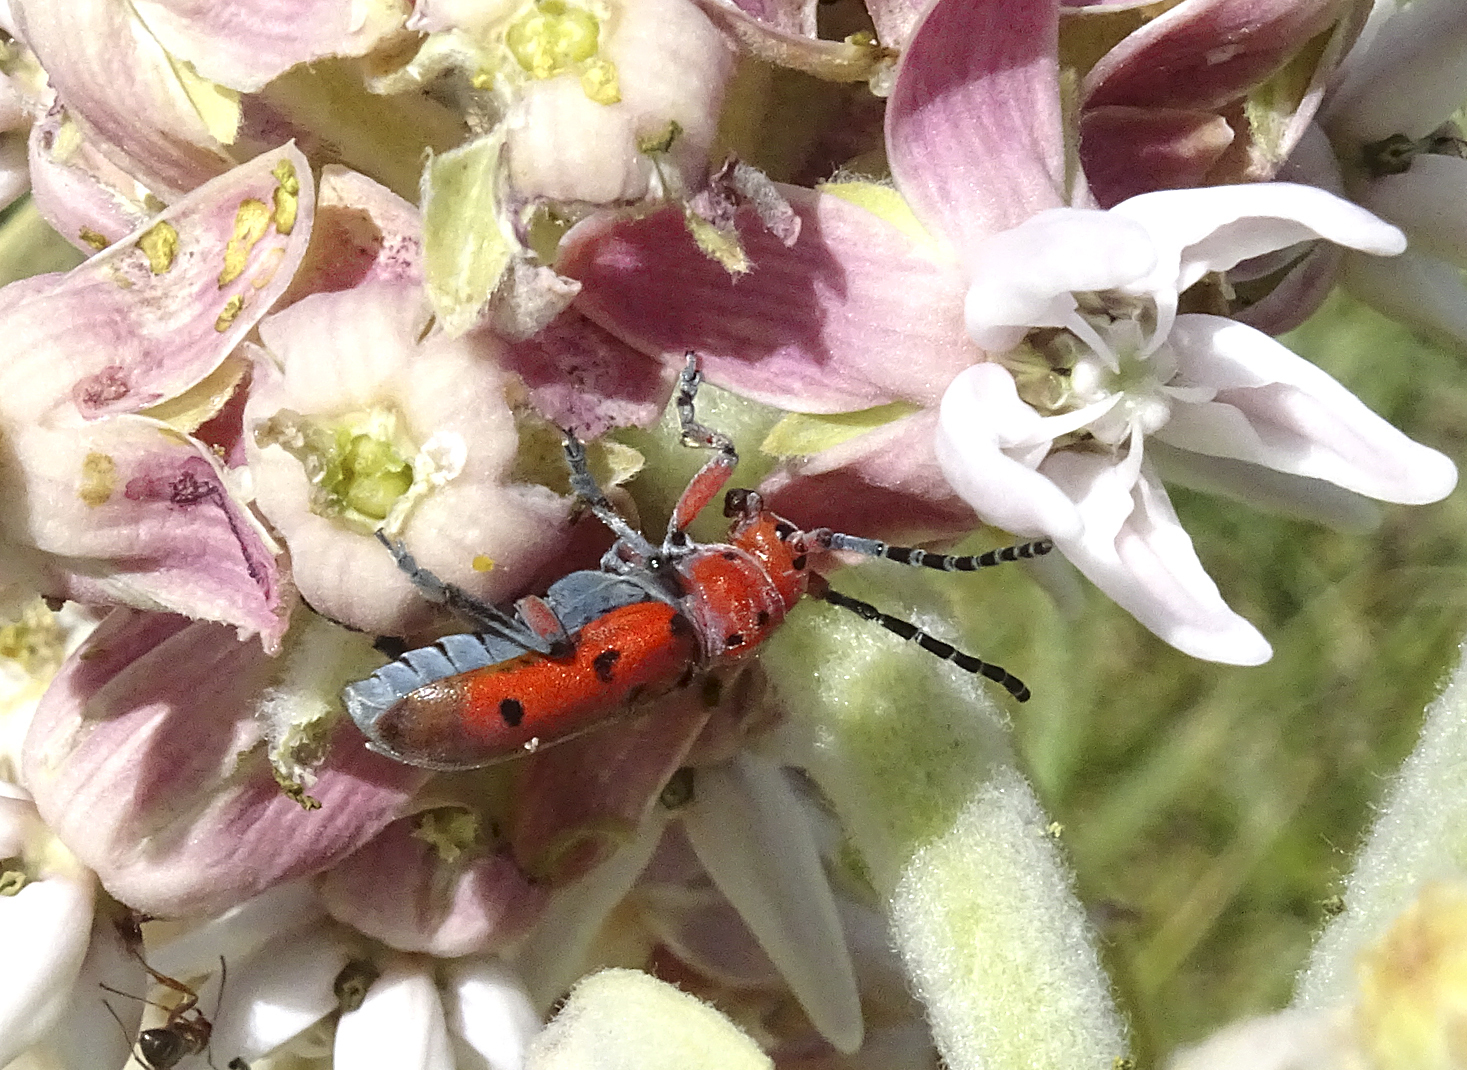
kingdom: Animalia
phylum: Arthropoda
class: Insecta
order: Coleoptera
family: Cerambycidae
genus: Tetraopes
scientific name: Tetraopes femoratus
